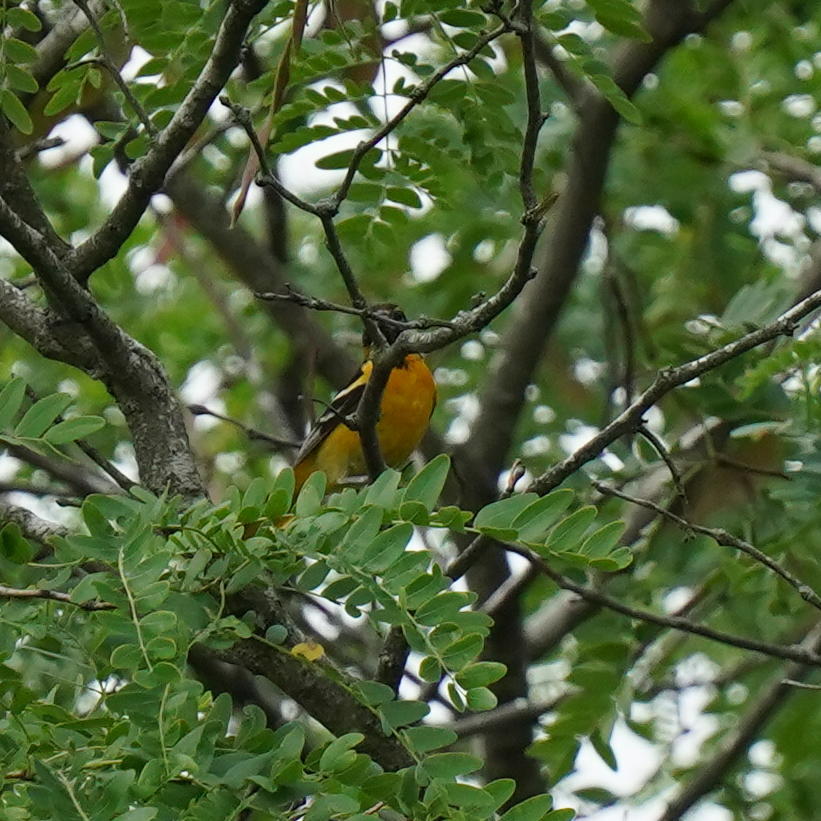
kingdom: Animalia
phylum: Chordata
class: Aves
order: Passeriformes
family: Icteridae
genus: Icterus
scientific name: Icterus galbula
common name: Baltimore oriole
